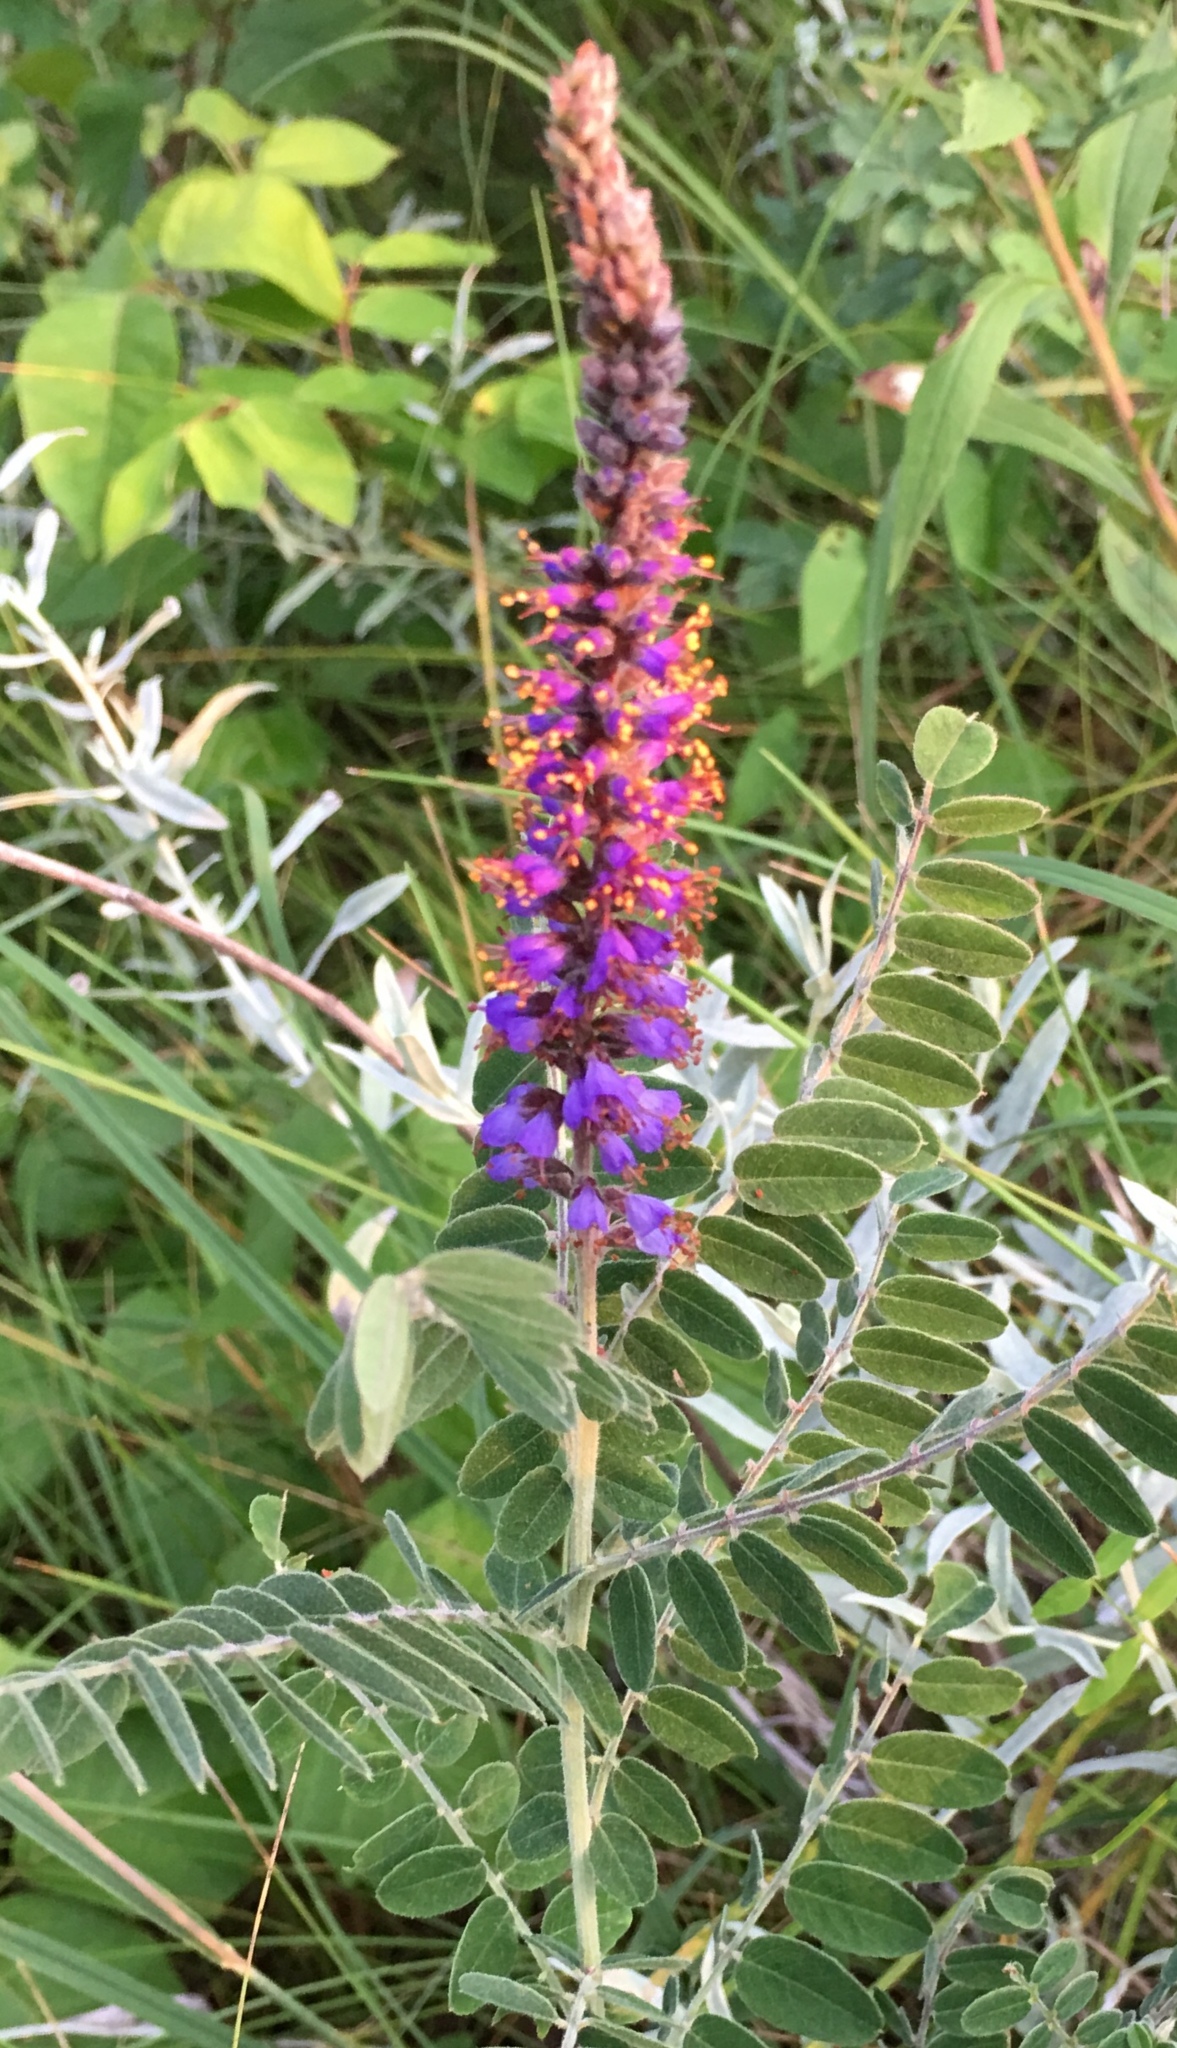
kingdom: Plantae
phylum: Tracheophyta
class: Magnoliopsida
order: Fabales
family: Fabaceae
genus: Amorpha
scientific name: Amorpha canescens
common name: Leadplant
